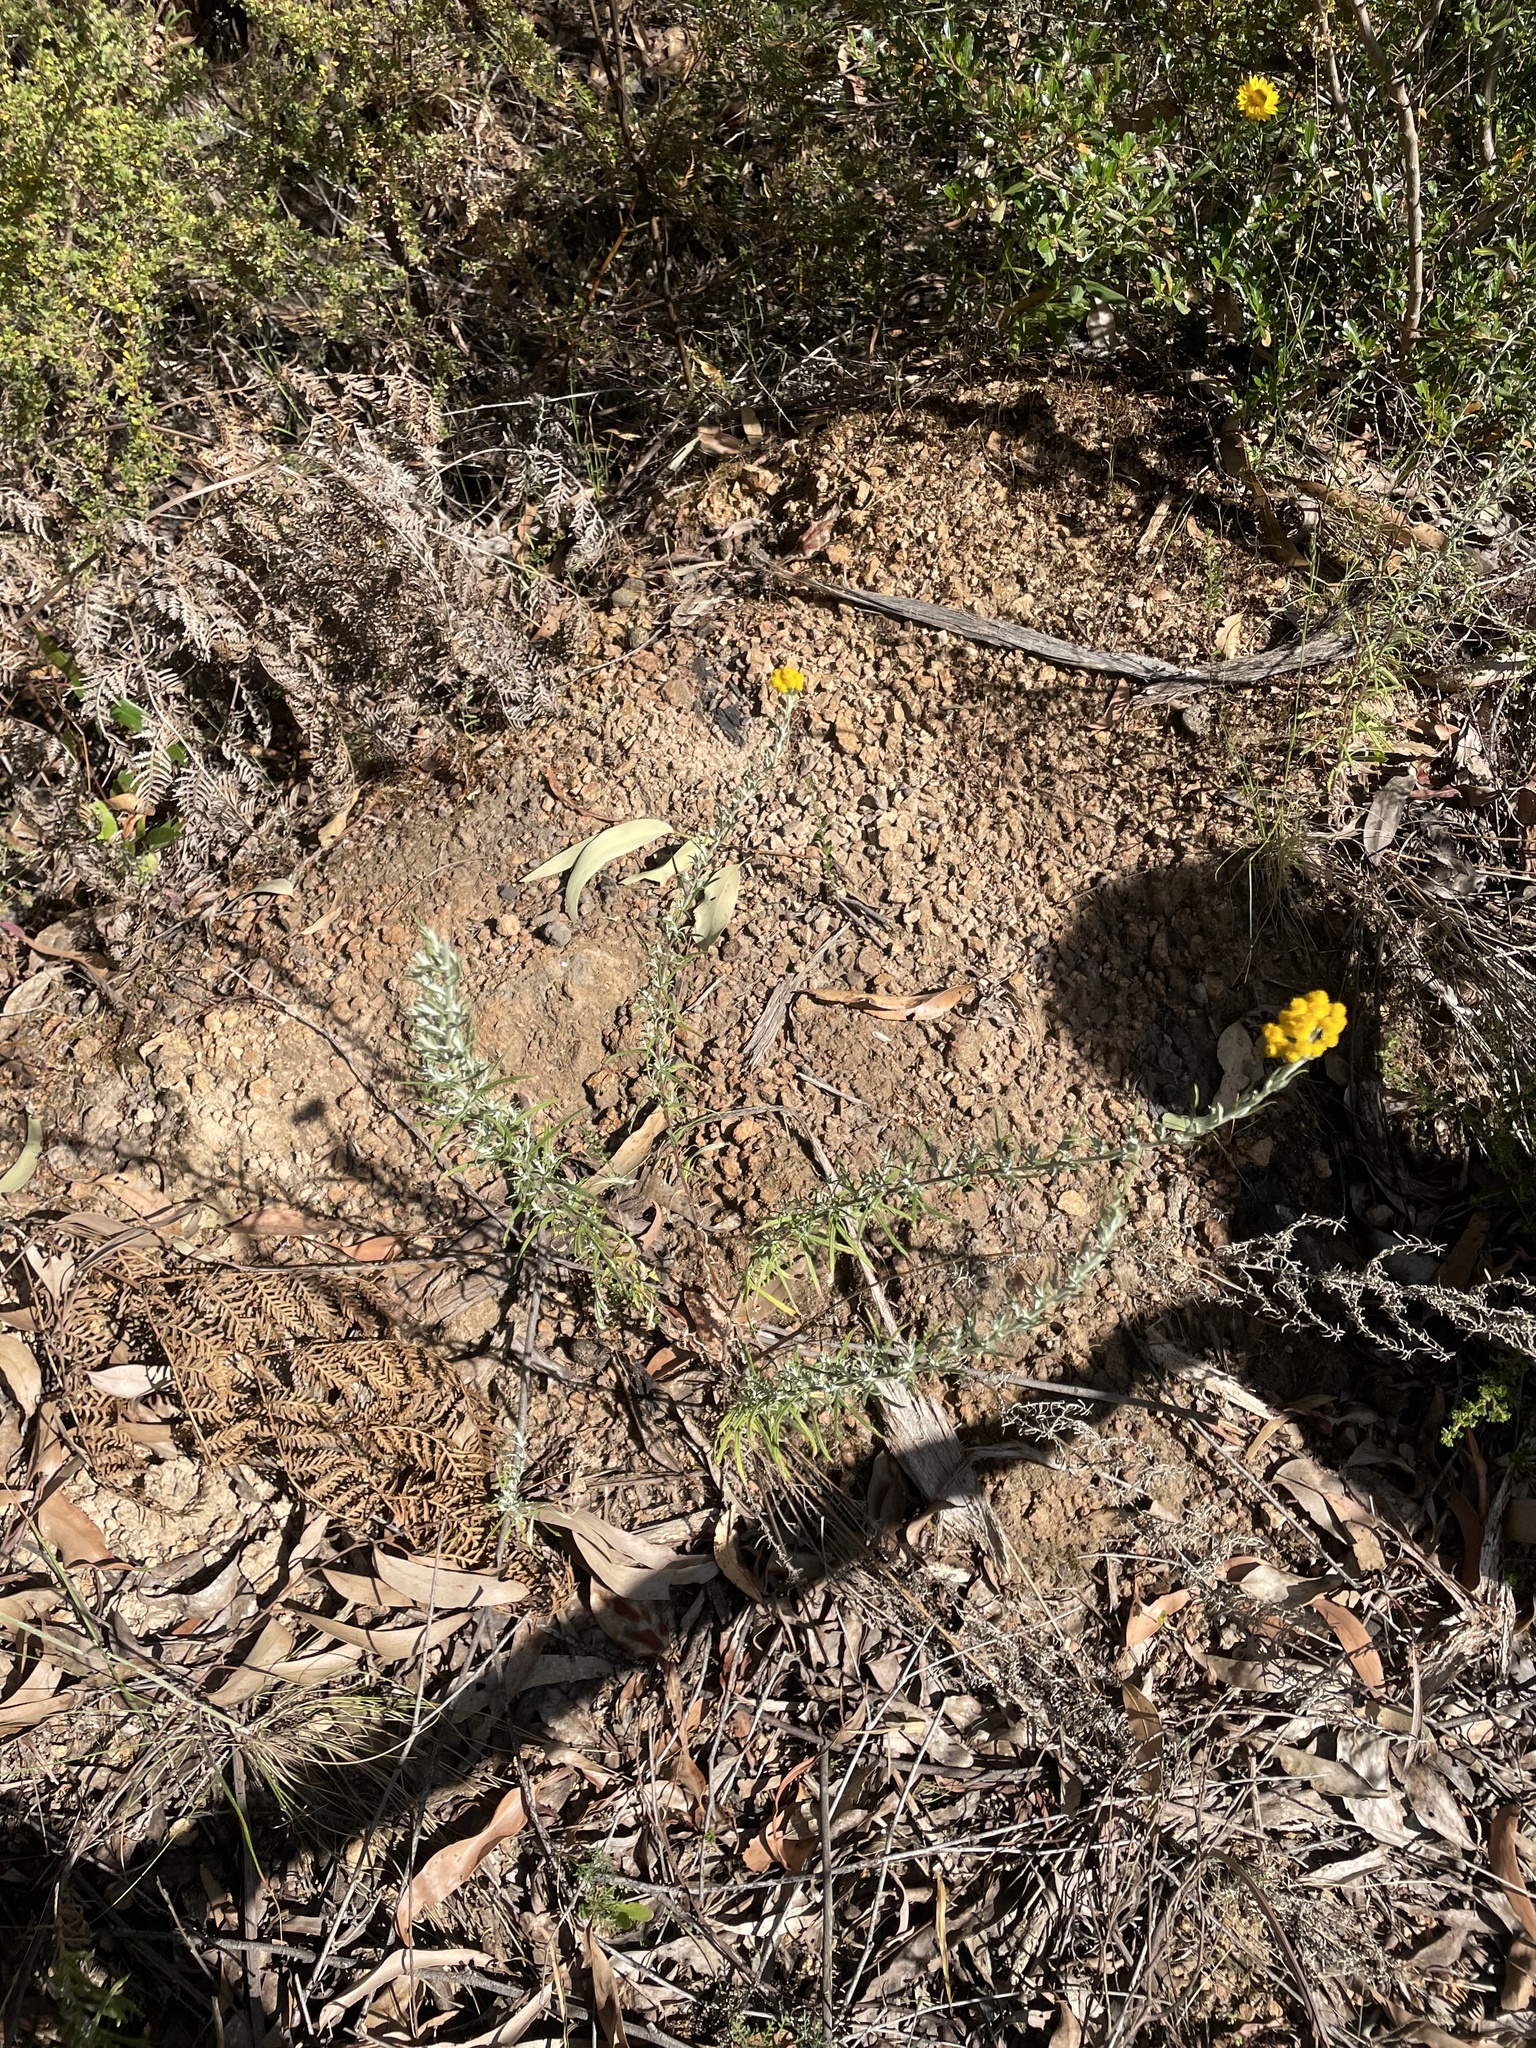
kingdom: Plantae
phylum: Tracheophyta
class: Magnoliopsida
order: Asterales
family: Asteraceae
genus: Chrysocephalum
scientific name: Chrysocephalum semipapposum
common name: Clustered everlasting
